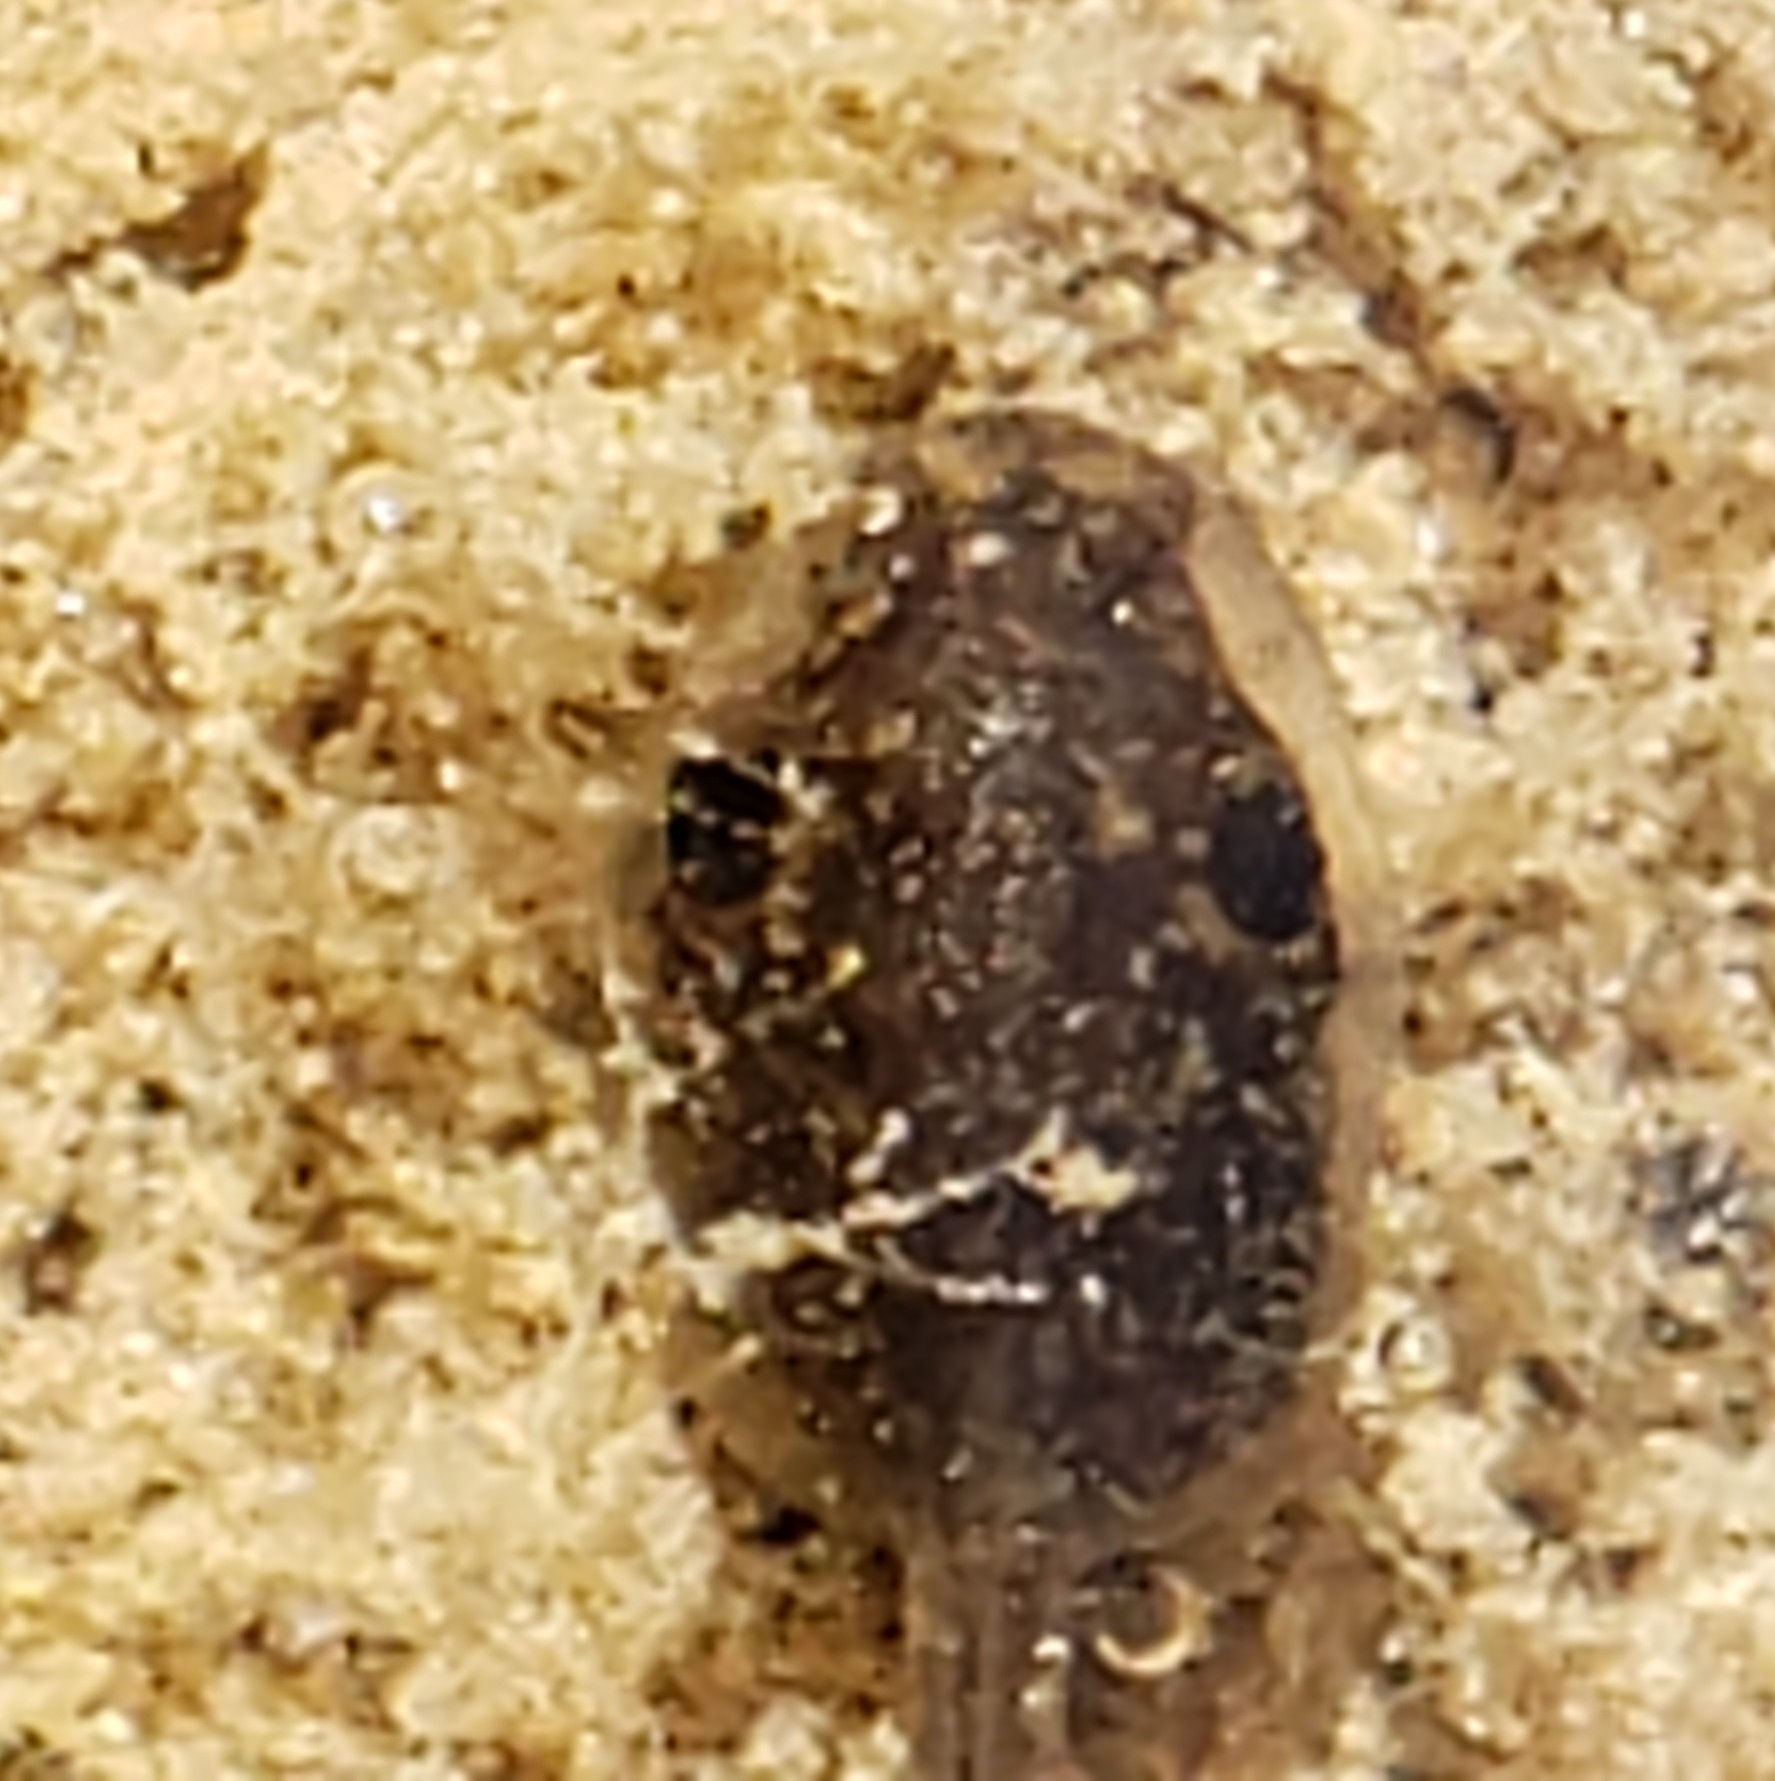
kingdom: Animalia
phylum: Chordata
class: Amphibia
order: Anura
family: Hylidae
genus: Pseudacris
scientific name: Pseudacris regilla
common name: Pacific chorus frog
